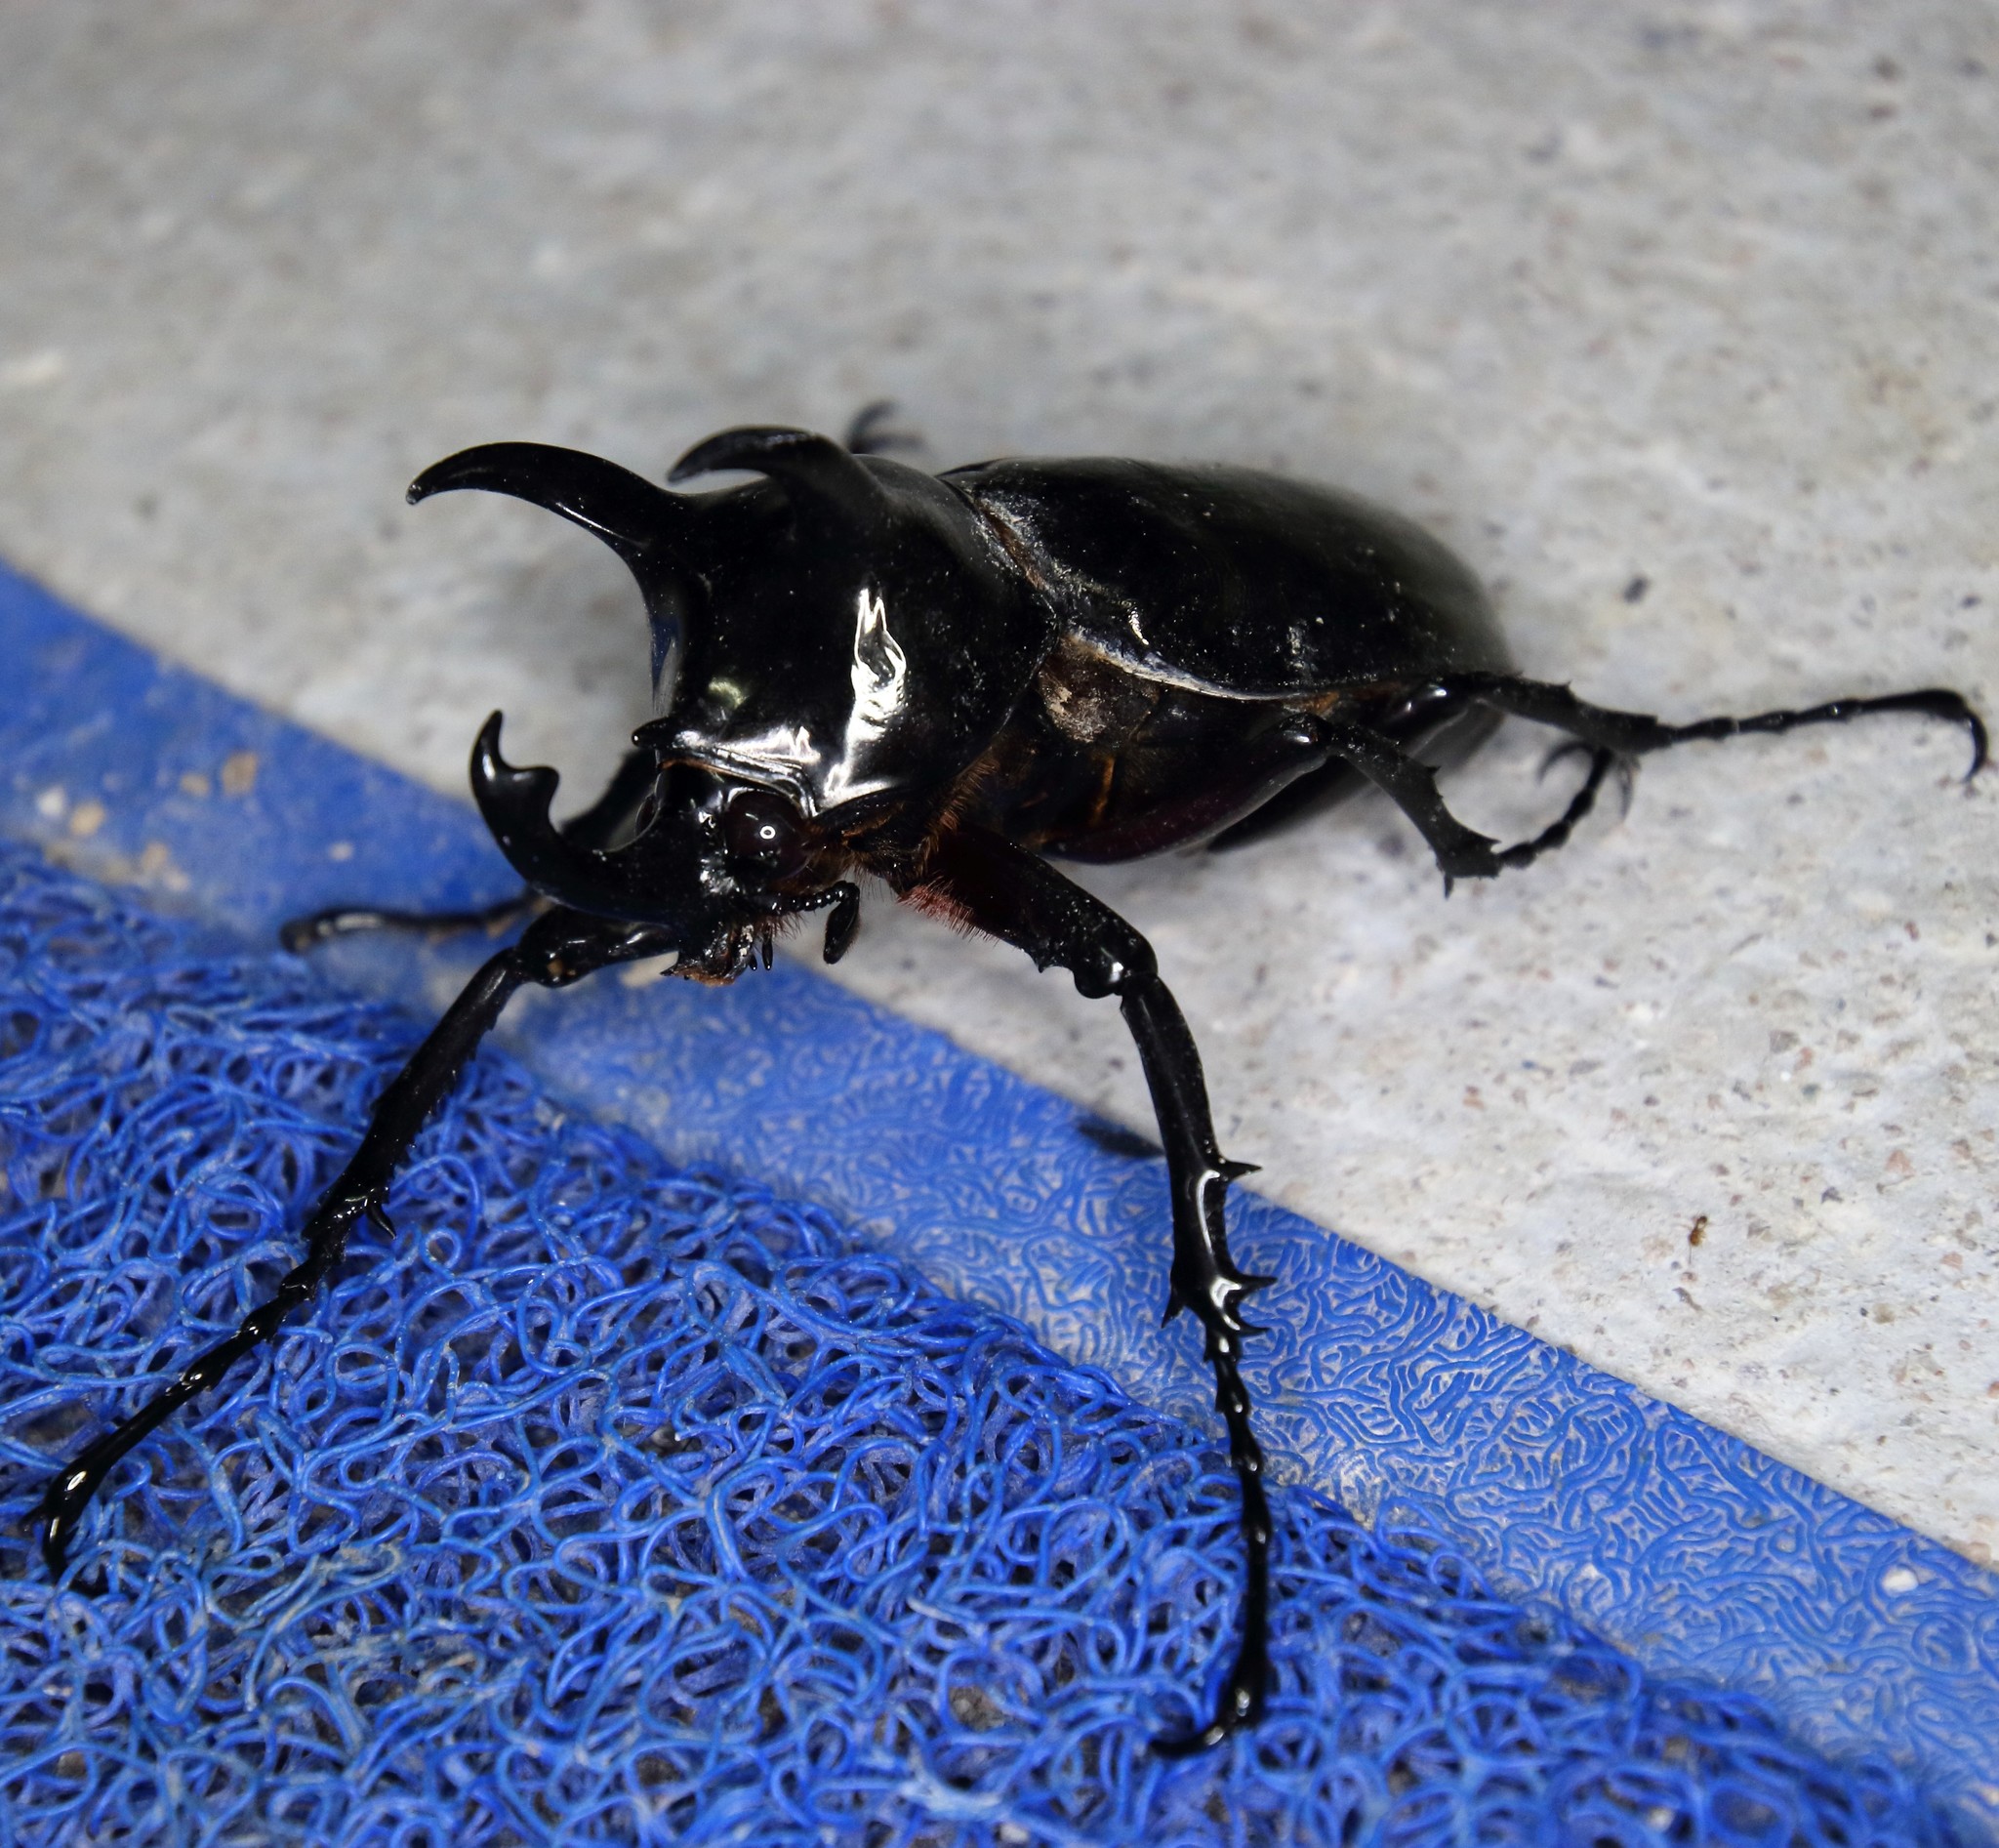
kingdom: Animalia
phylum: Arthropoda
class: Insecta
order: Coleoptera
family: Scarabaeidae
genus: Chalcosoma
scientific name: Chalcosoma atlas
